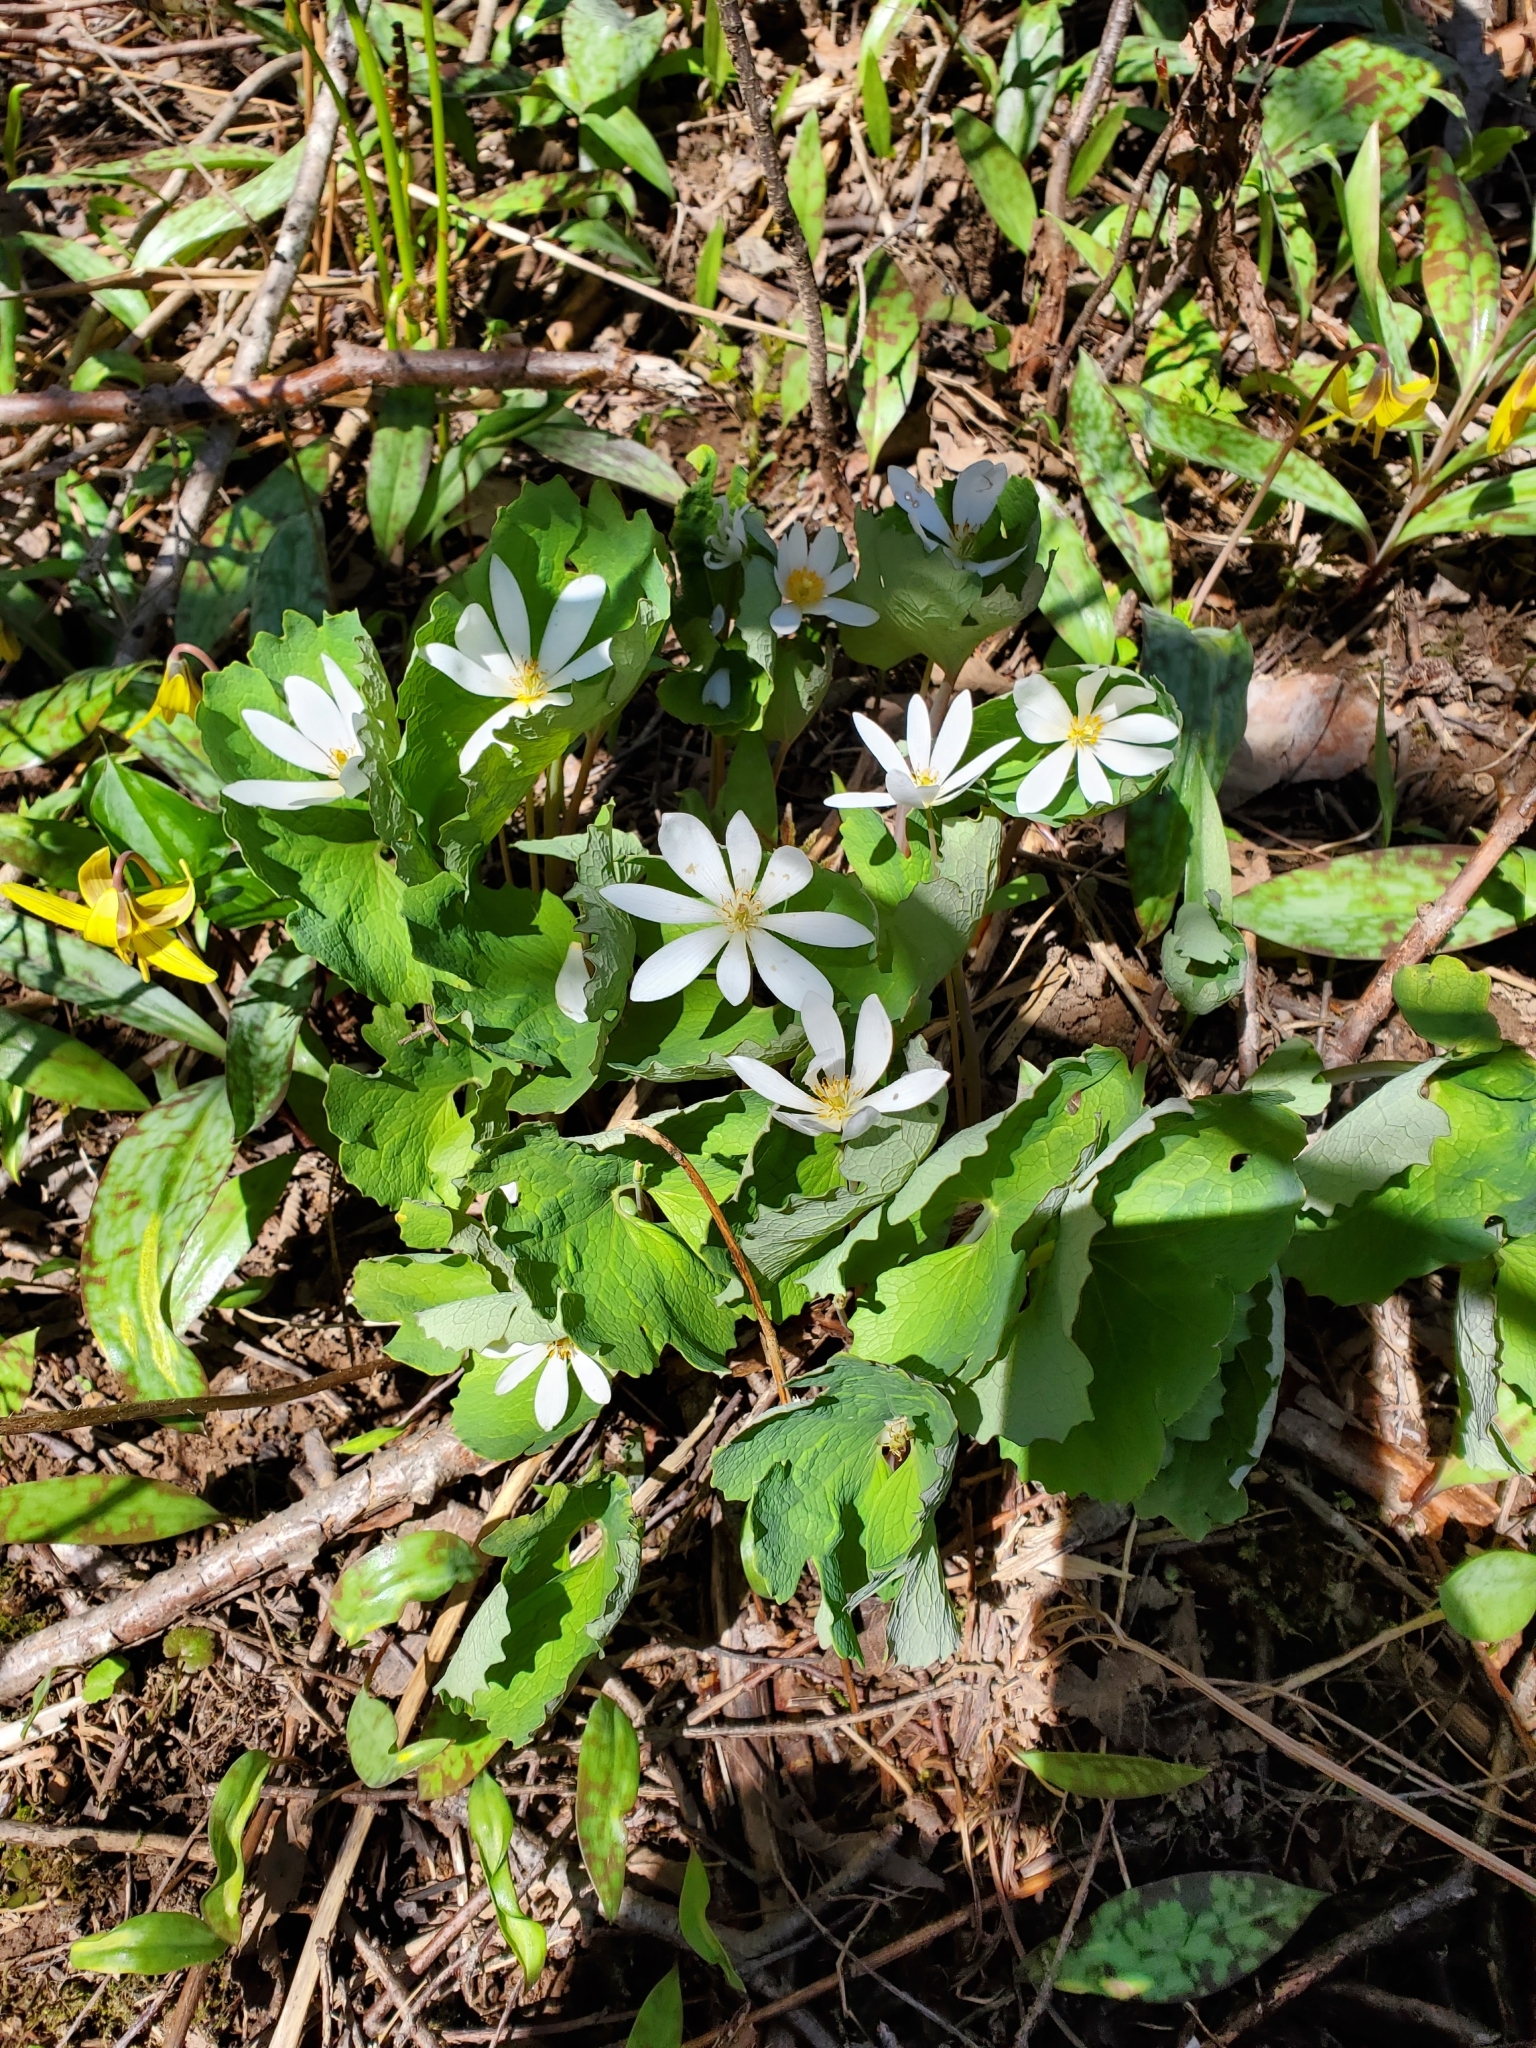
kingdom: Plantae
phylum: Tracheophyta
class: Magnoliopsida
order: Ranunculales
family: Papaveraceae
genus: Sanguinaria
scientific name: Sanguinaria canadensis
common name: Bloodroot
